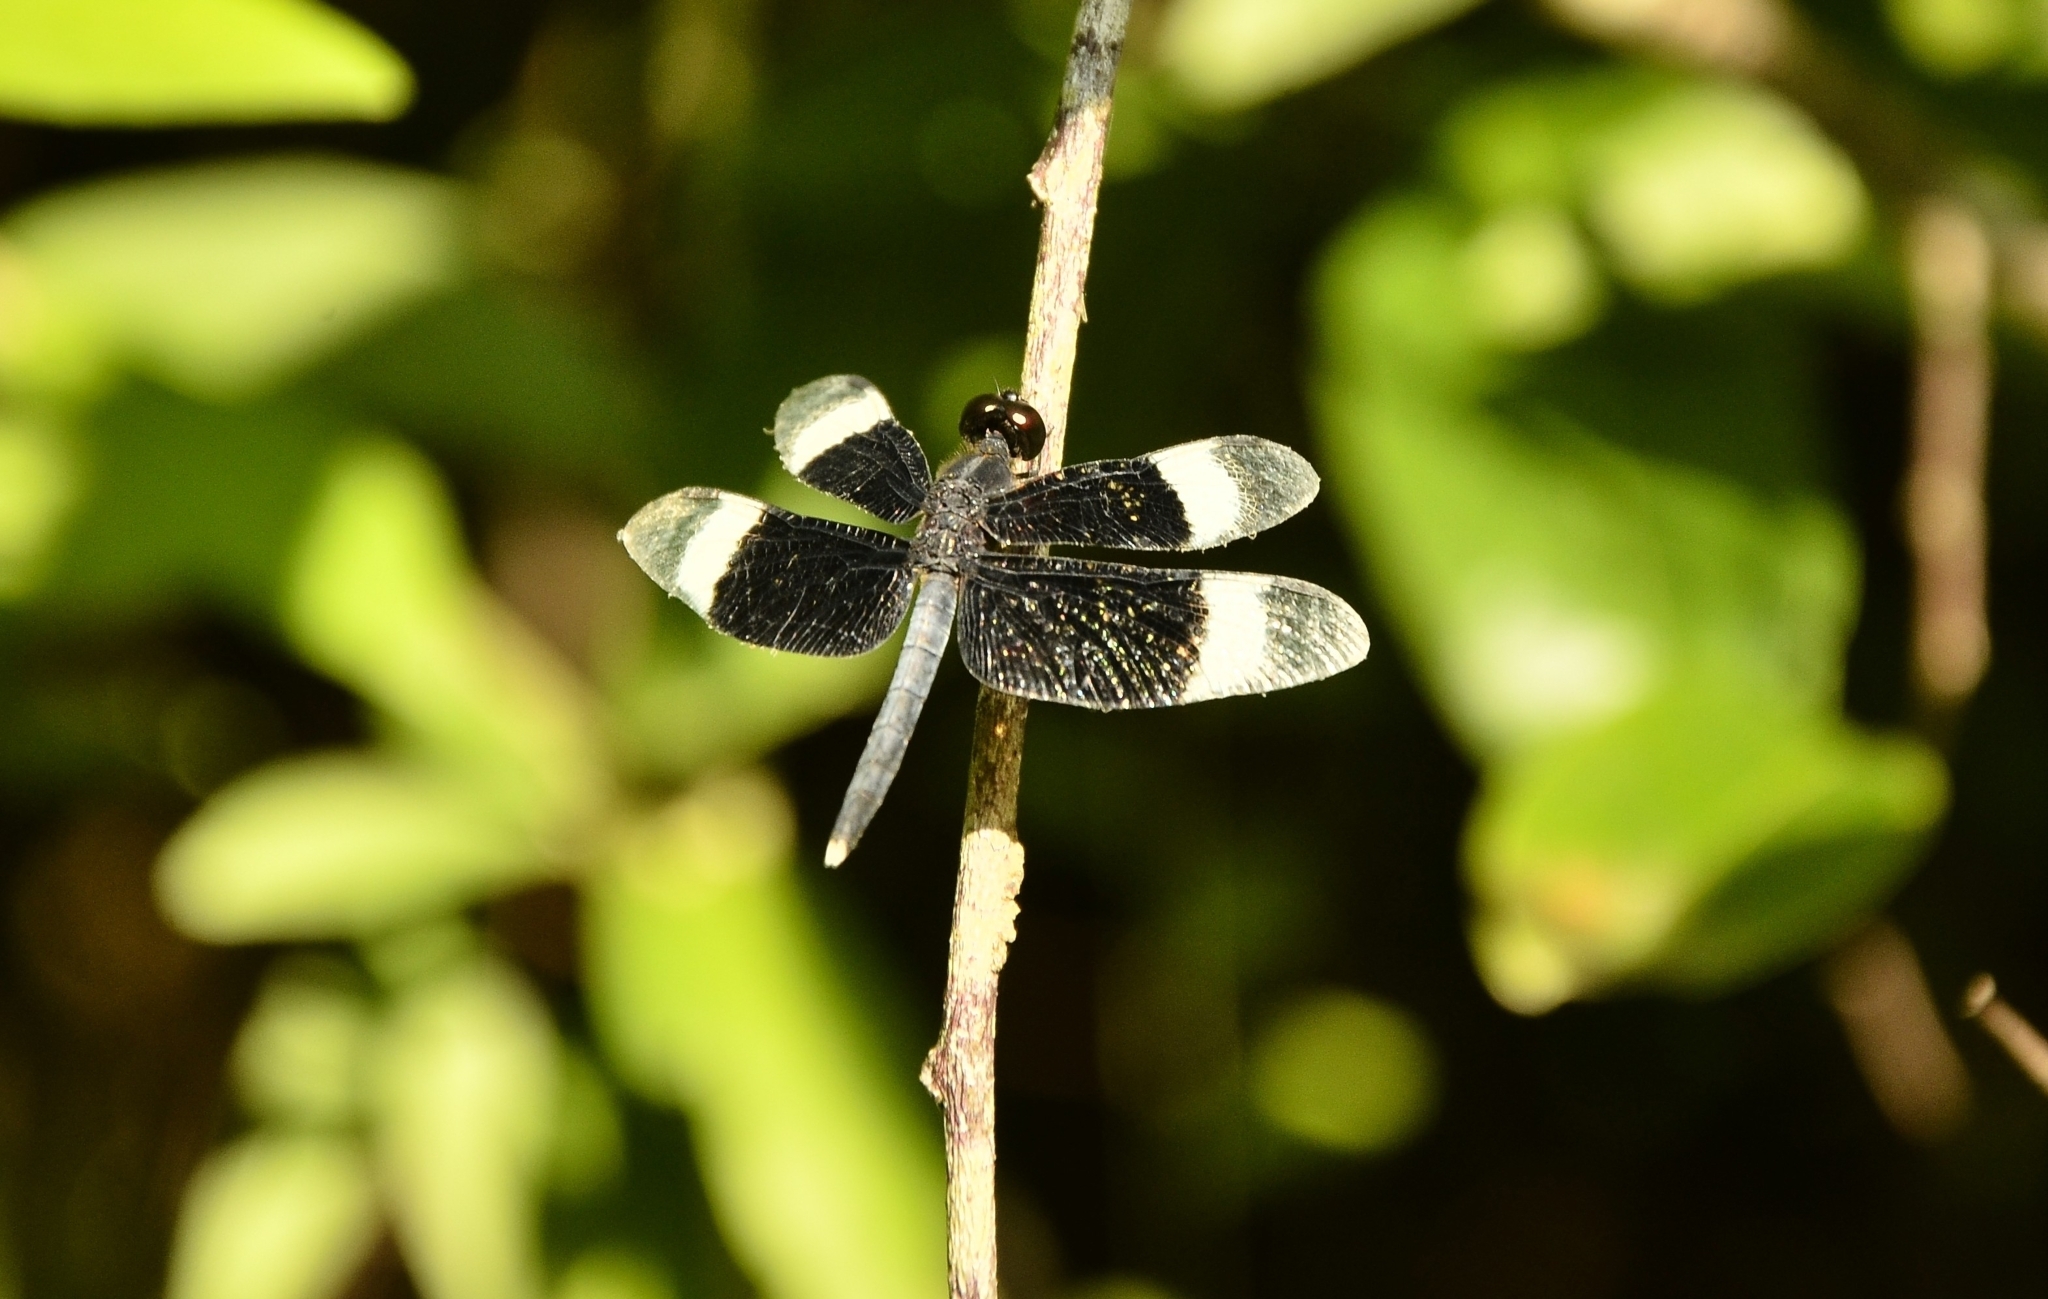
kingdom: Animalia
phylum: Arthropoda
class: Insecta
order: Odonata
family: Libellulidae
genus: Neurothemis
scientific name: Neurothemis tullia
